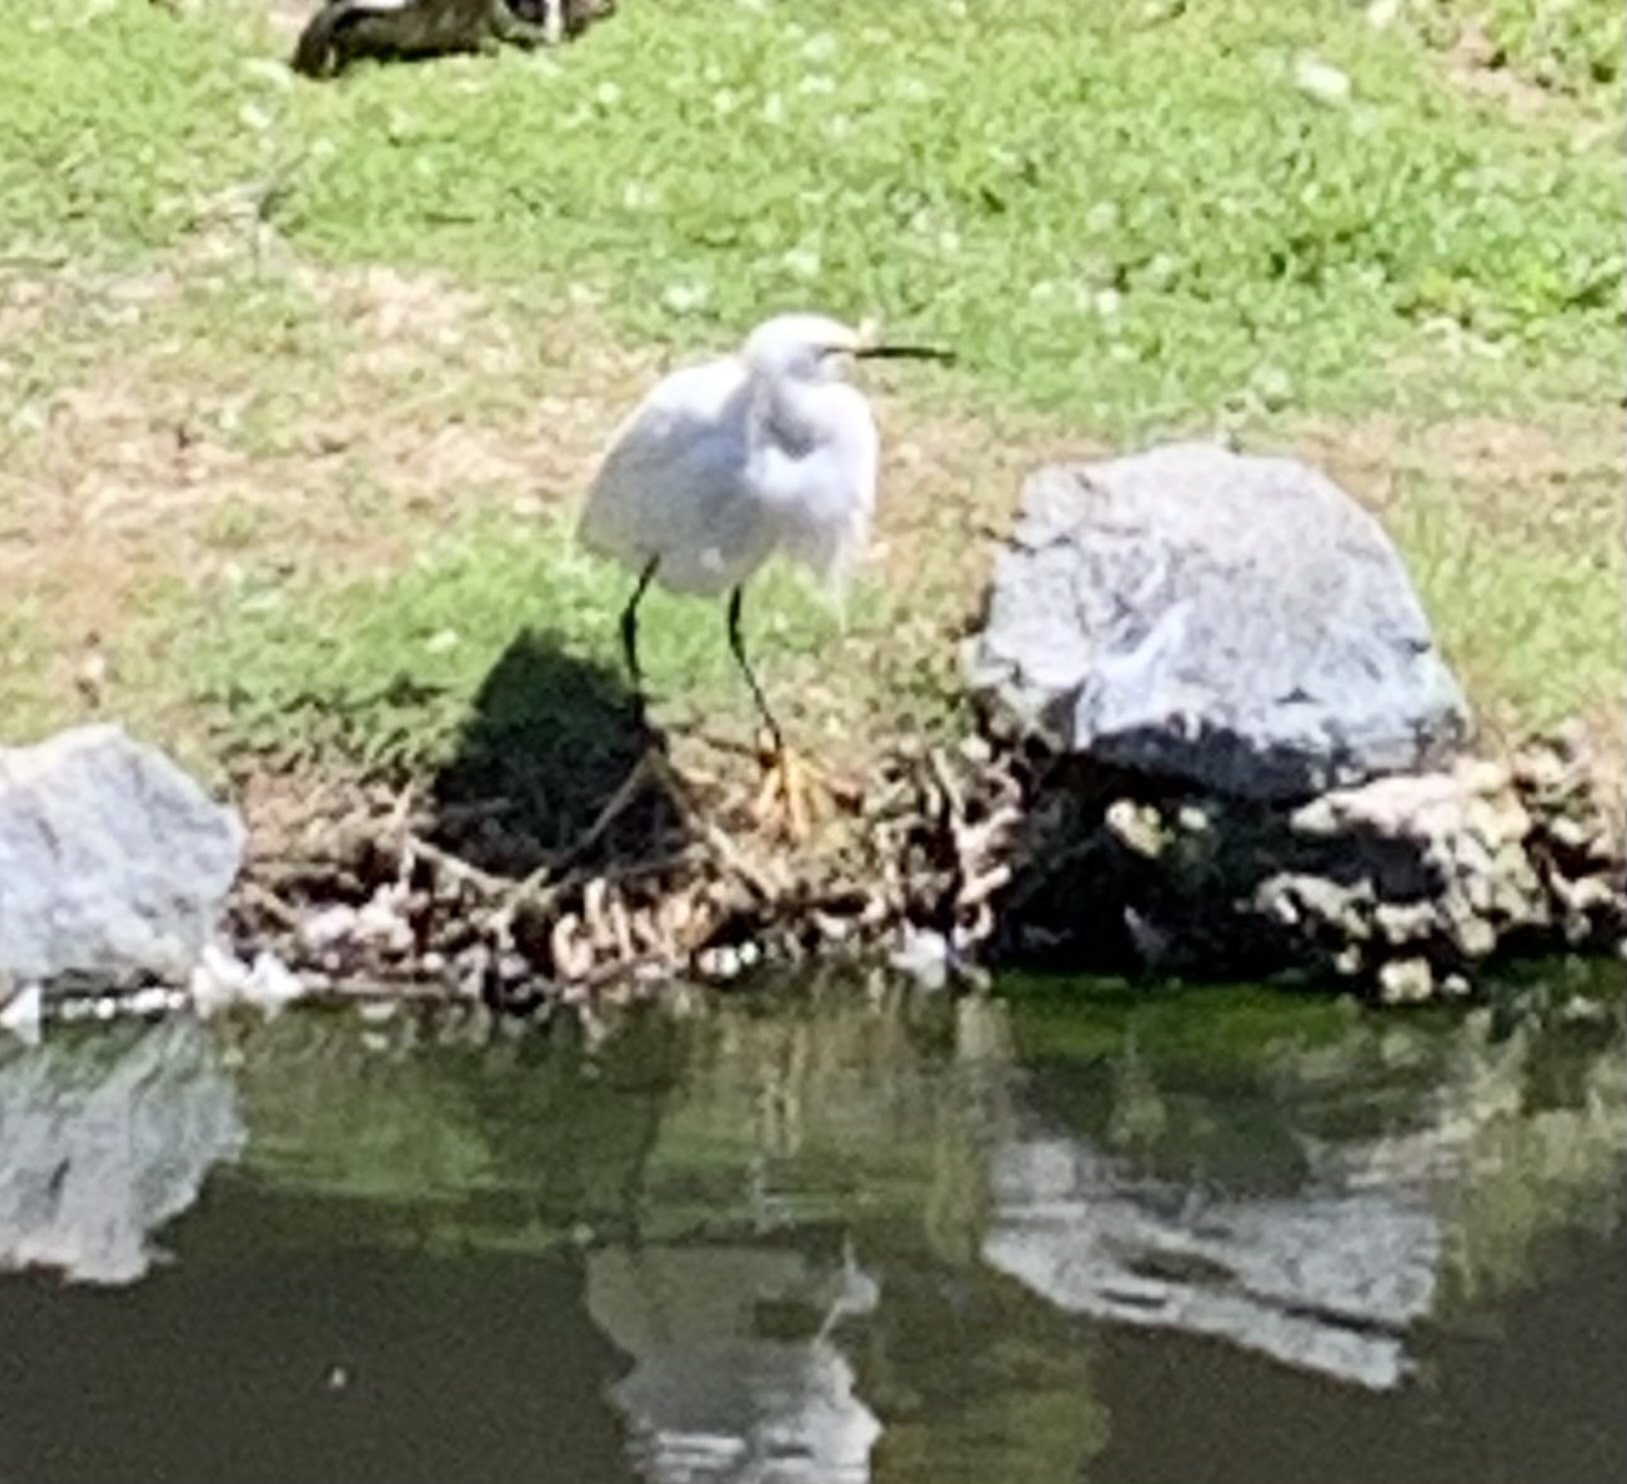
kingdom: Animalia
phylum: Chordata
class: Aves
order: Pelecaniformes
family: Ardeidae
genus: Egretta
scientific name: Egretta thula
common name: Snowy egret
